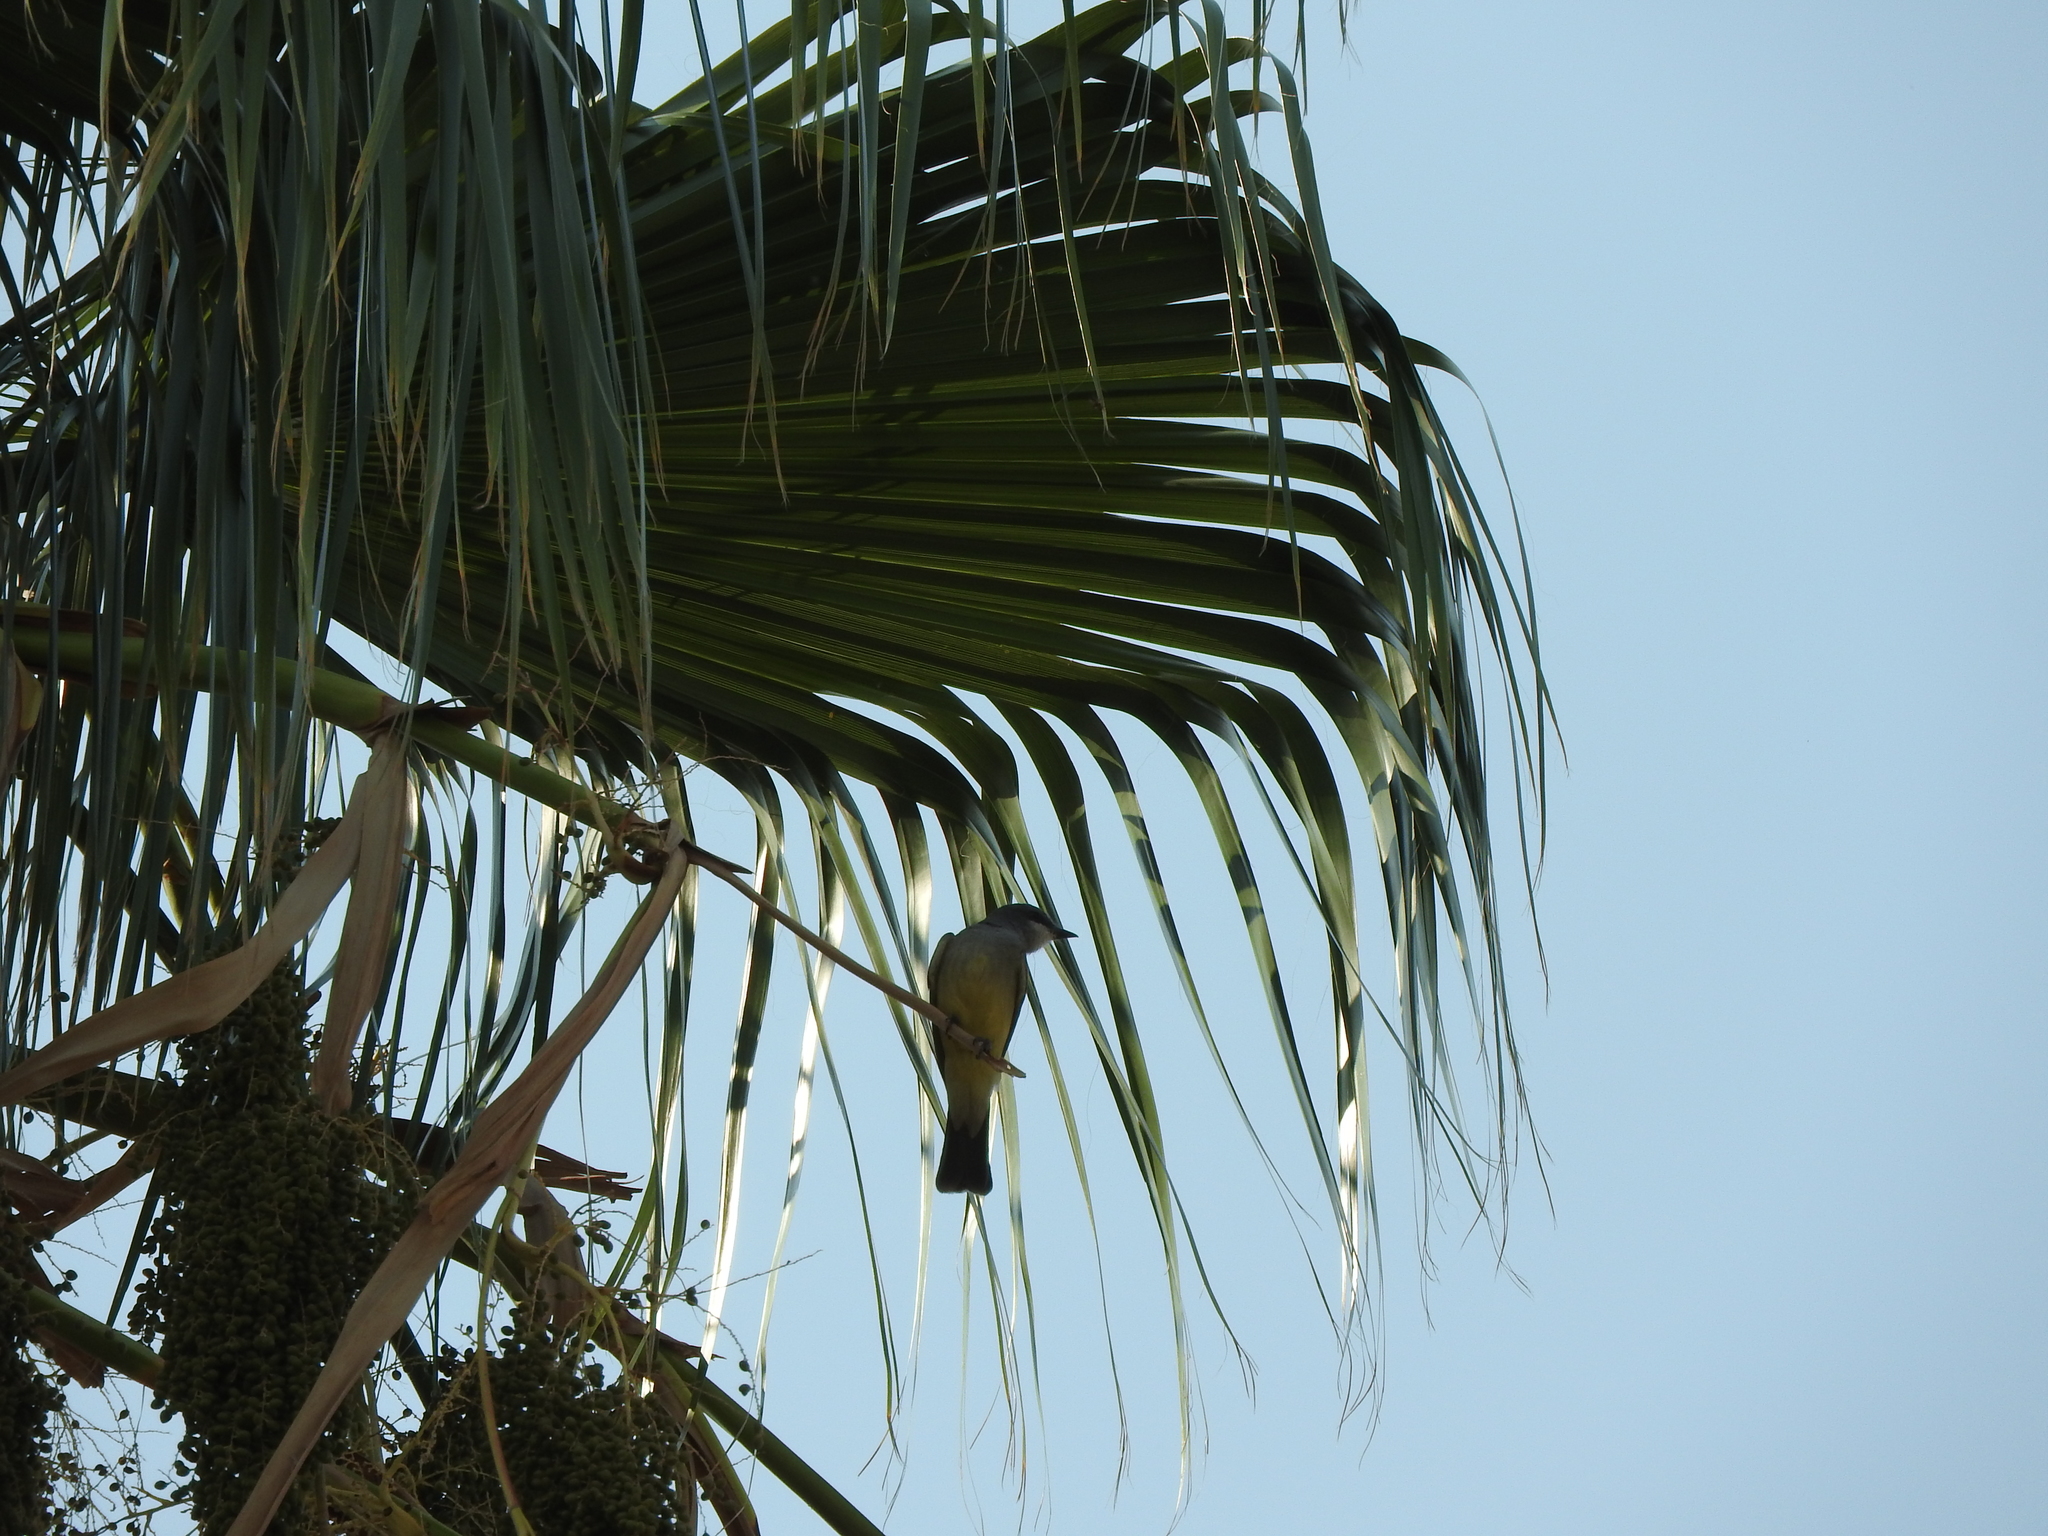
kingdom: Animalia
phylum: Chordata
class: Aves
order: Passeriformes
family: Tyrannidae
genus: Tyrannus
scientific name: Tyrannus vociferans
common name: Cassin's kingbird
